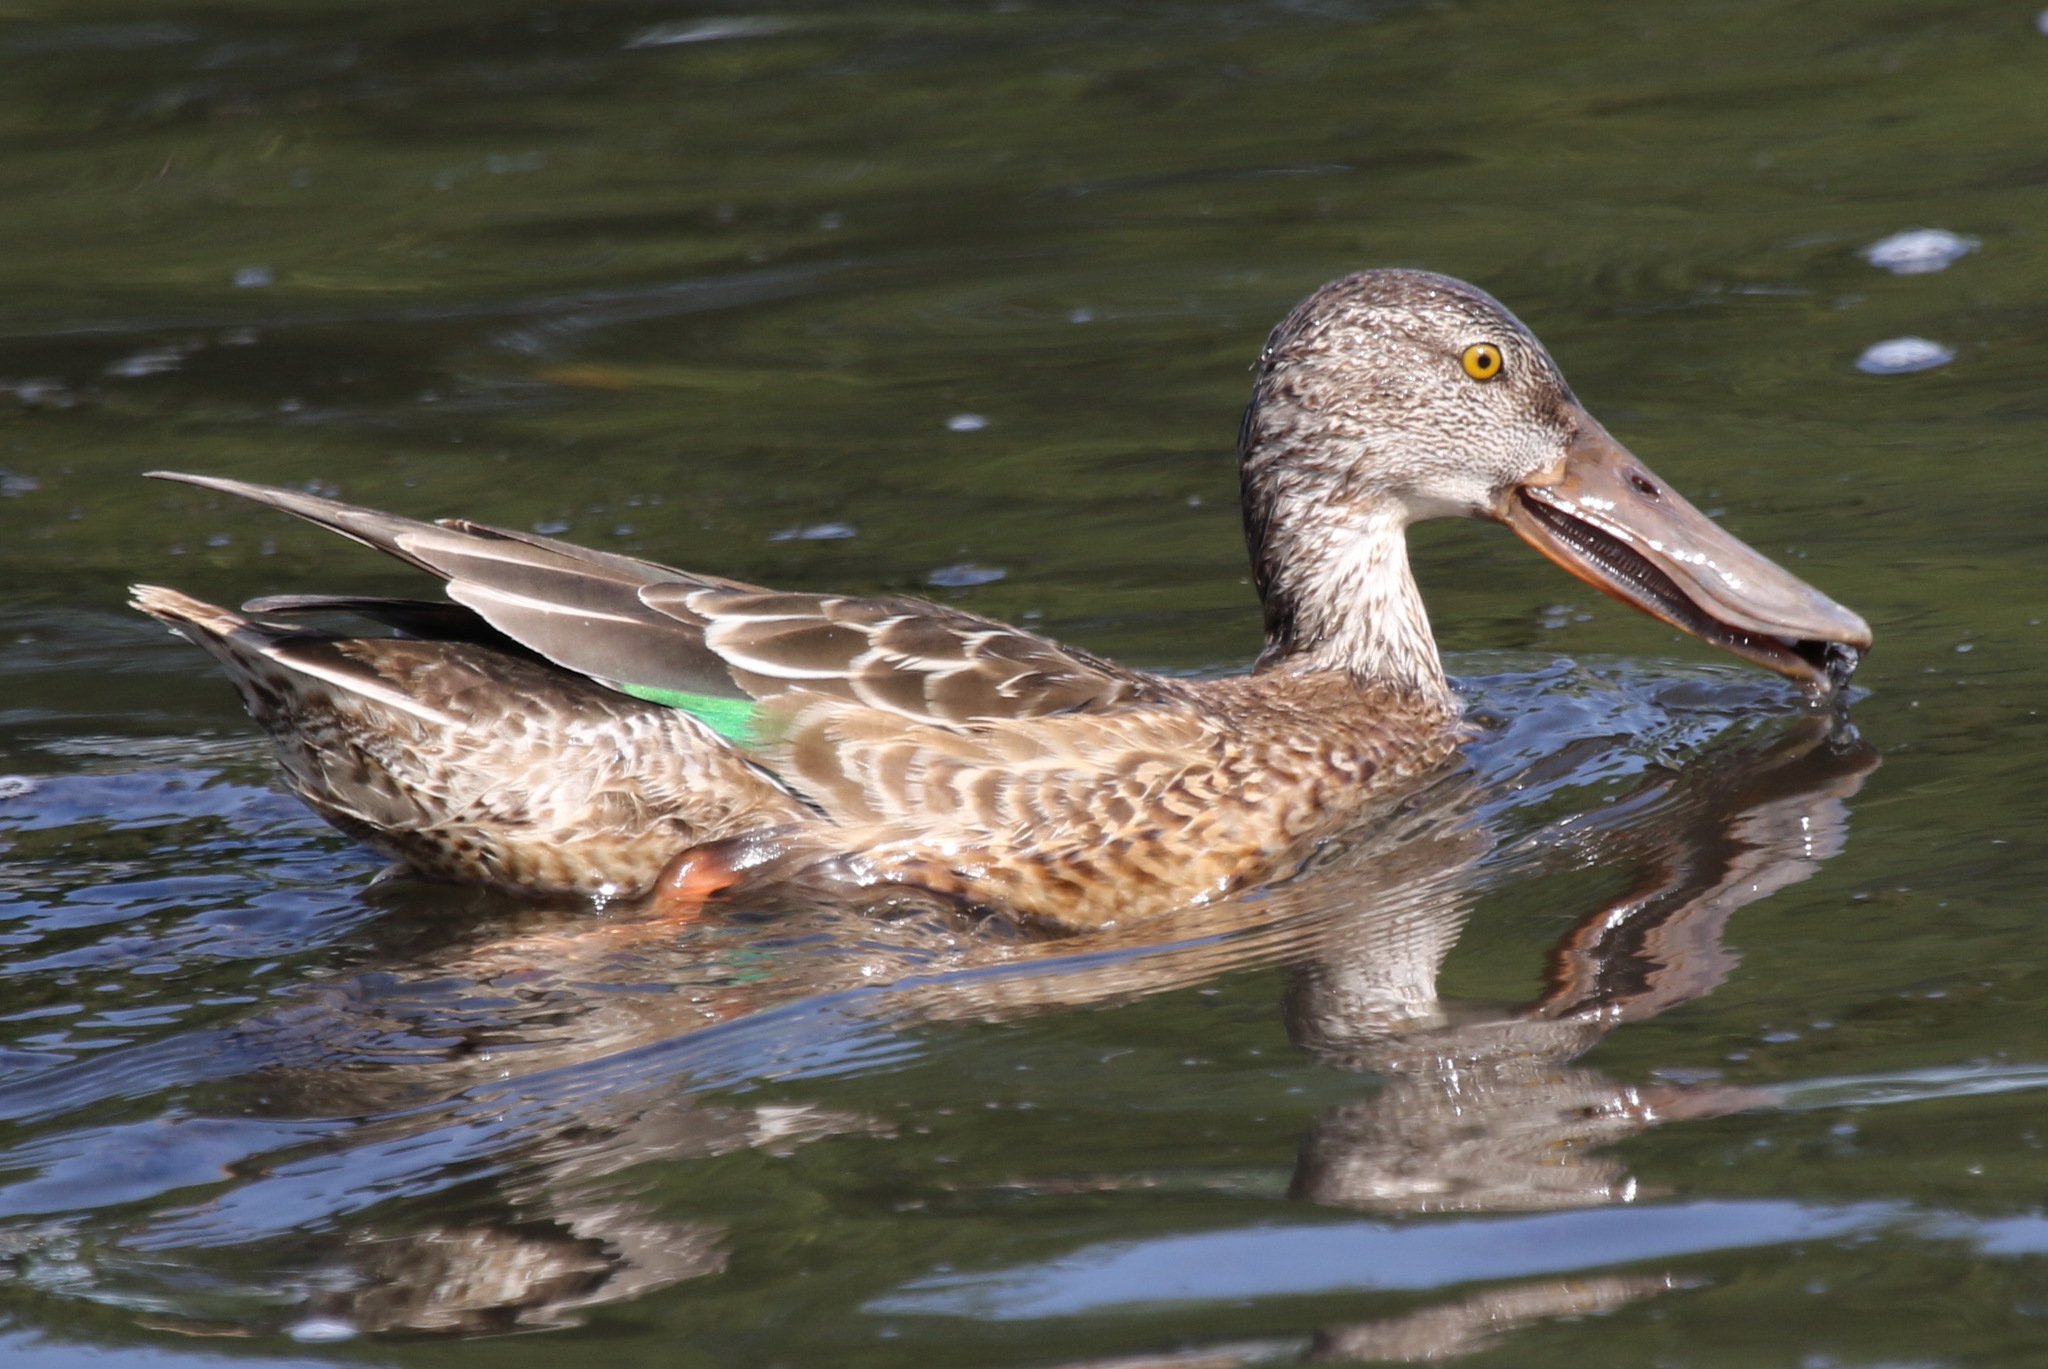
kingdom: Animalia
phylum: Chordata
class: Aves
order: Anseriformes
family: Anatidae
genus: Spatula
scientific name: Spatula clypeata
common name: Northern shoveler
